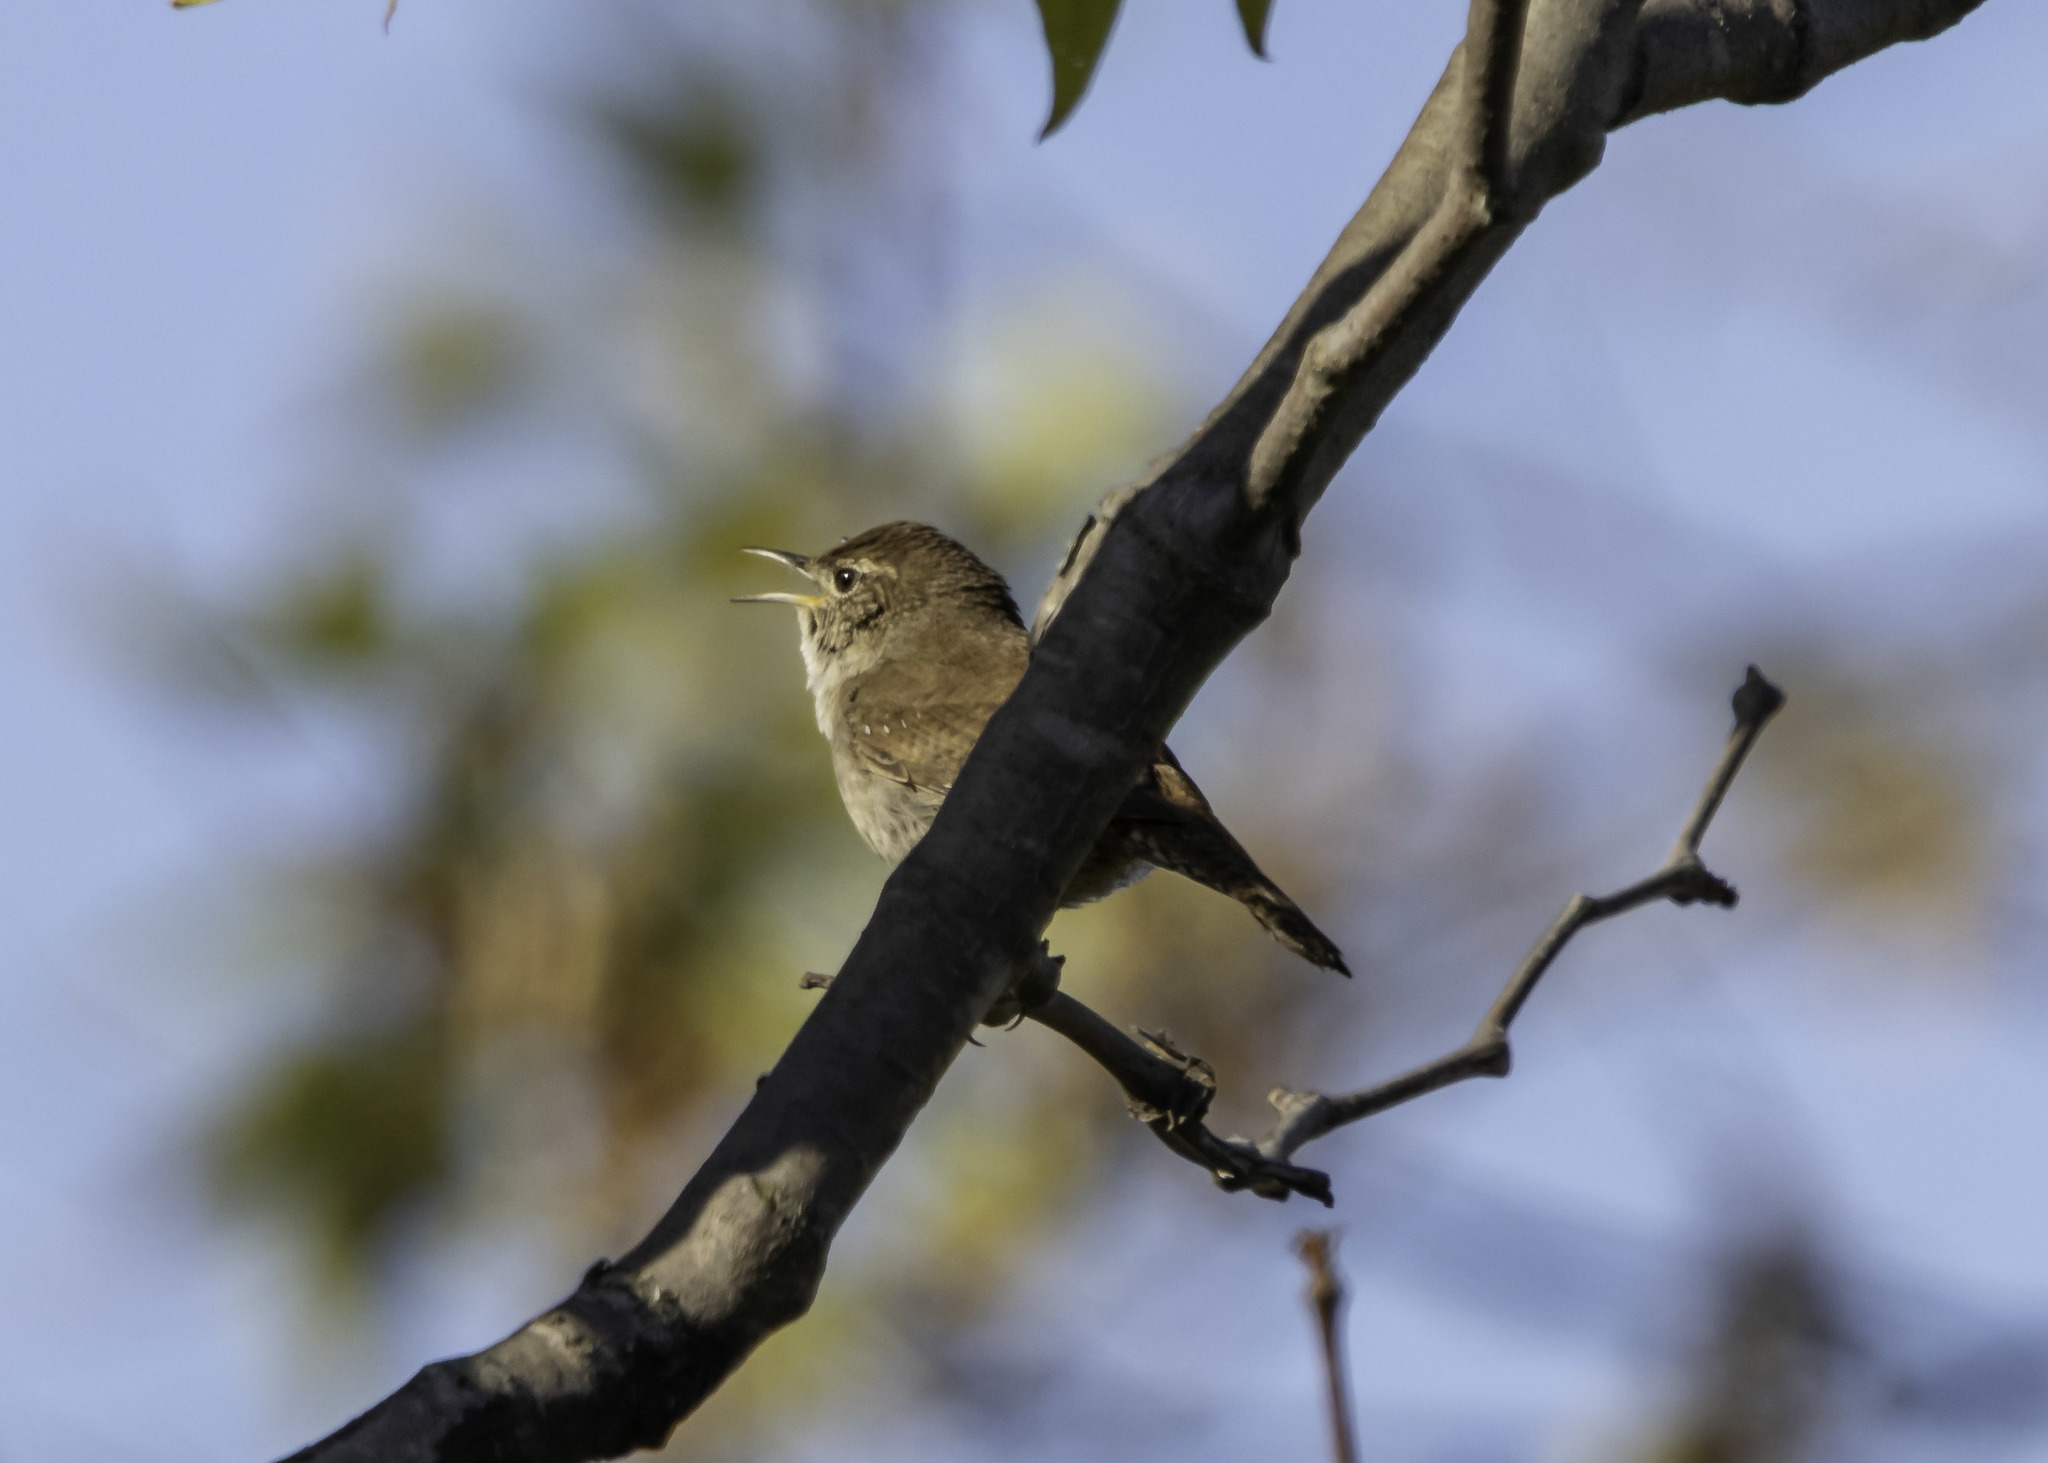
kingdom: Animalia
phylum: Chordata
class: Aves
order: Passeriformes
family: Troglodytidae
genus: Troglodytes
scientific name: Troglodytes aedon
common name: House wren
